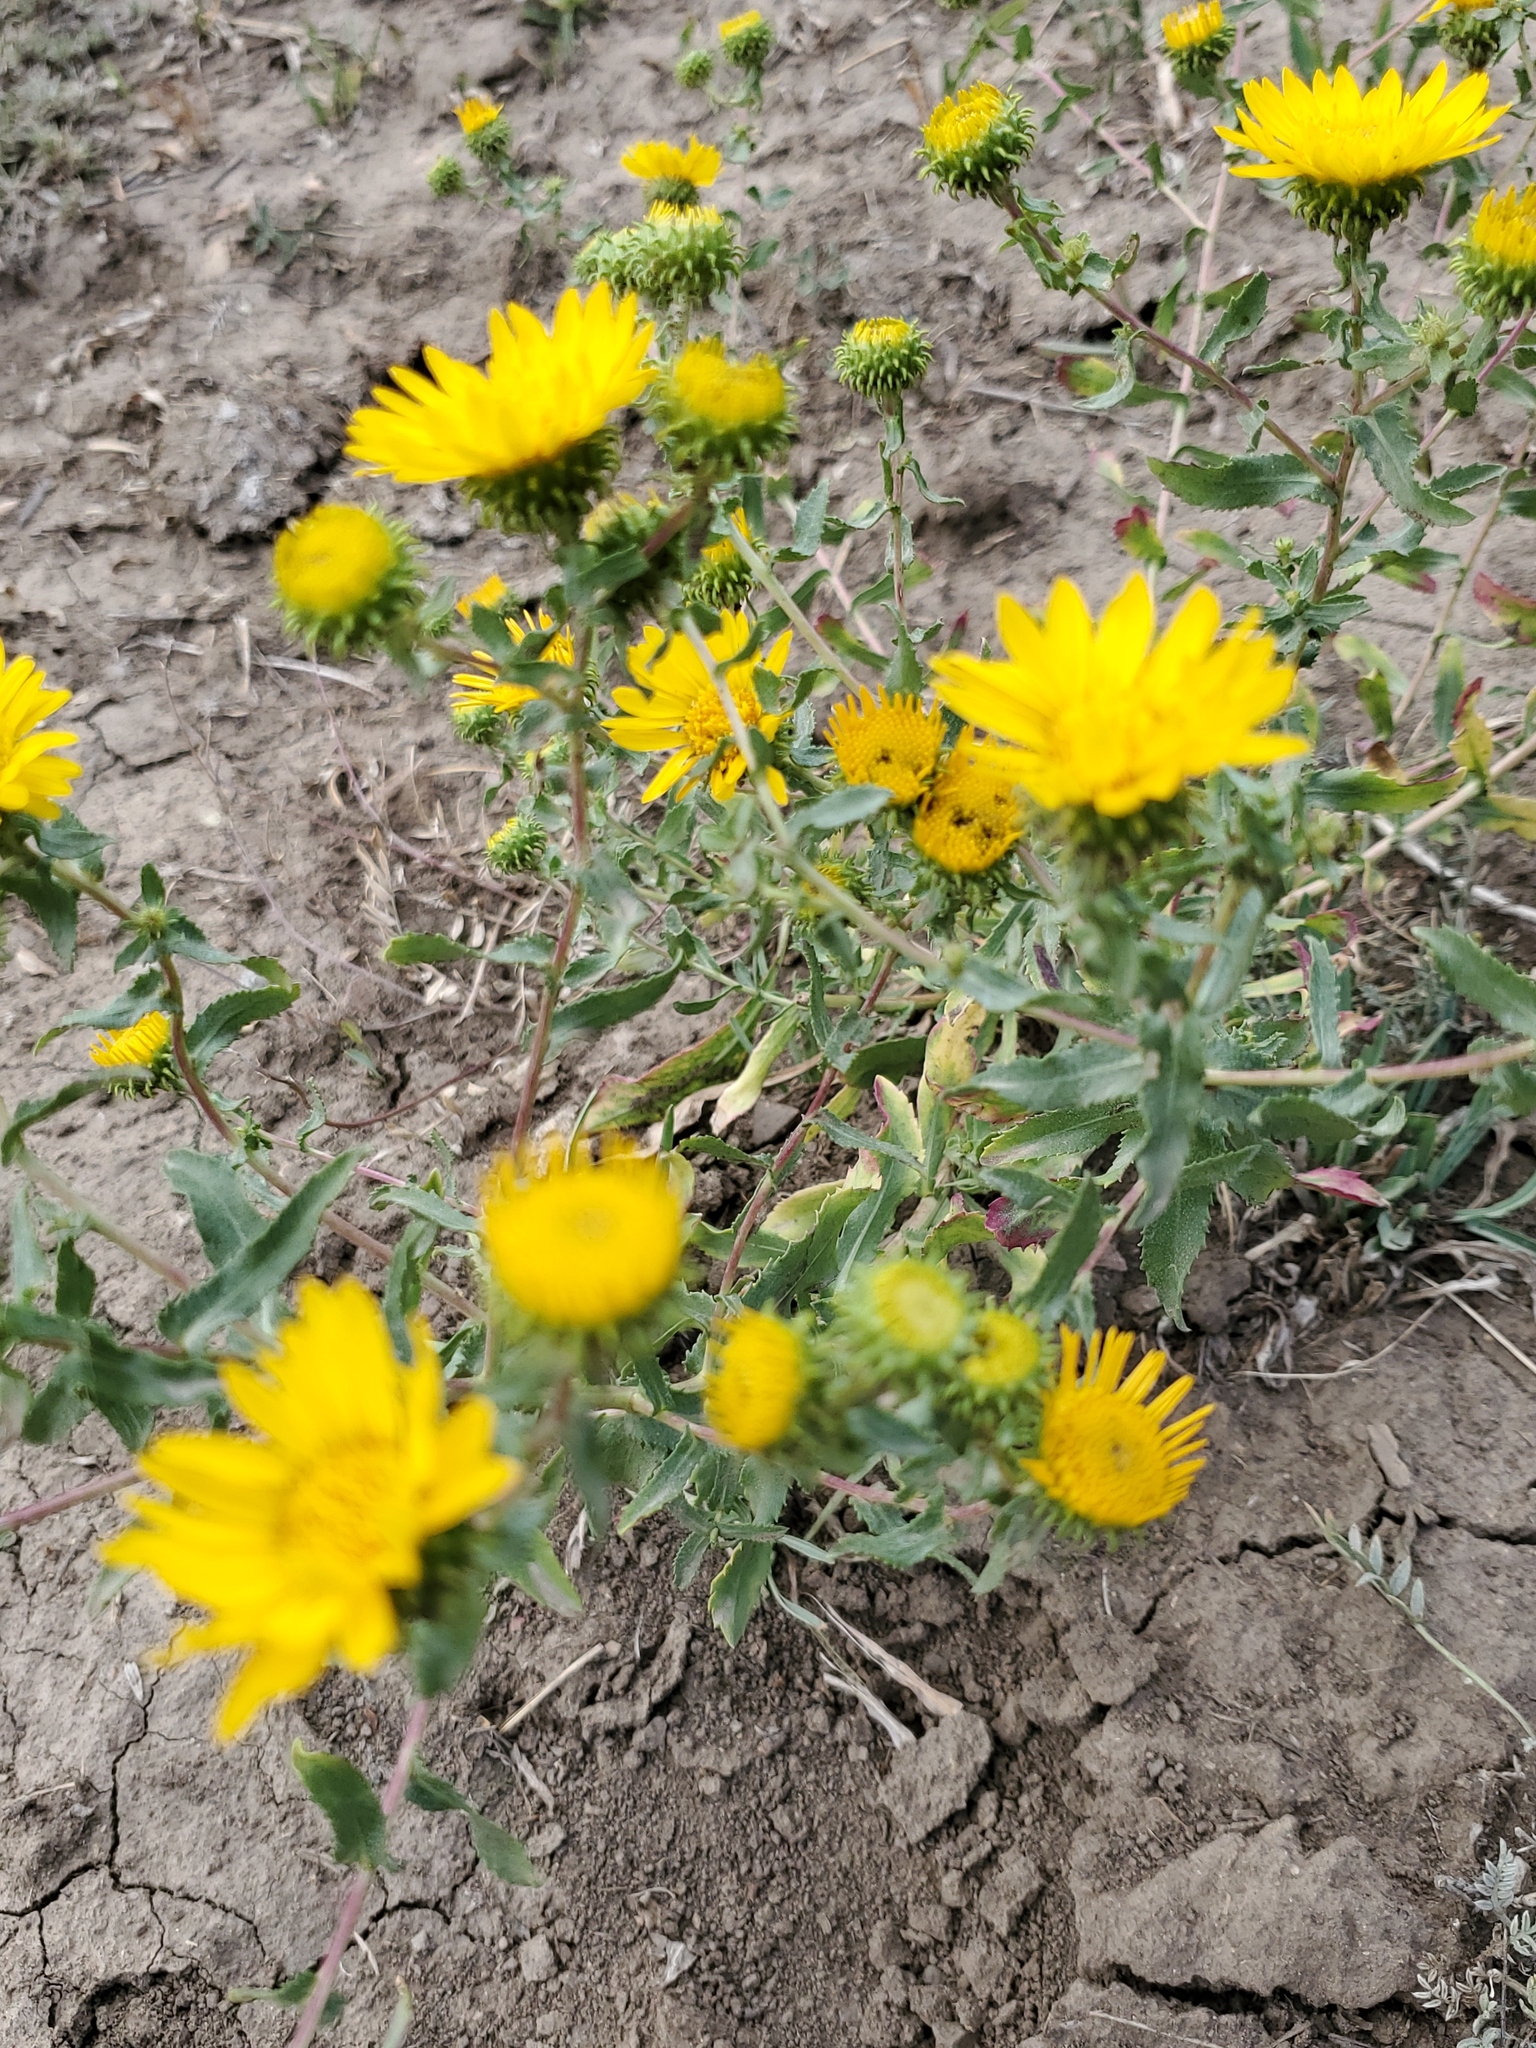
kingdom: Plantae
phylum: Tracheophyta
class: Magnoliopsida
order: Asterales
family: Asteraceae
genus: Grindelia
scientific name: Grindelia squarrosa
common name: Curly-cup gumweed
